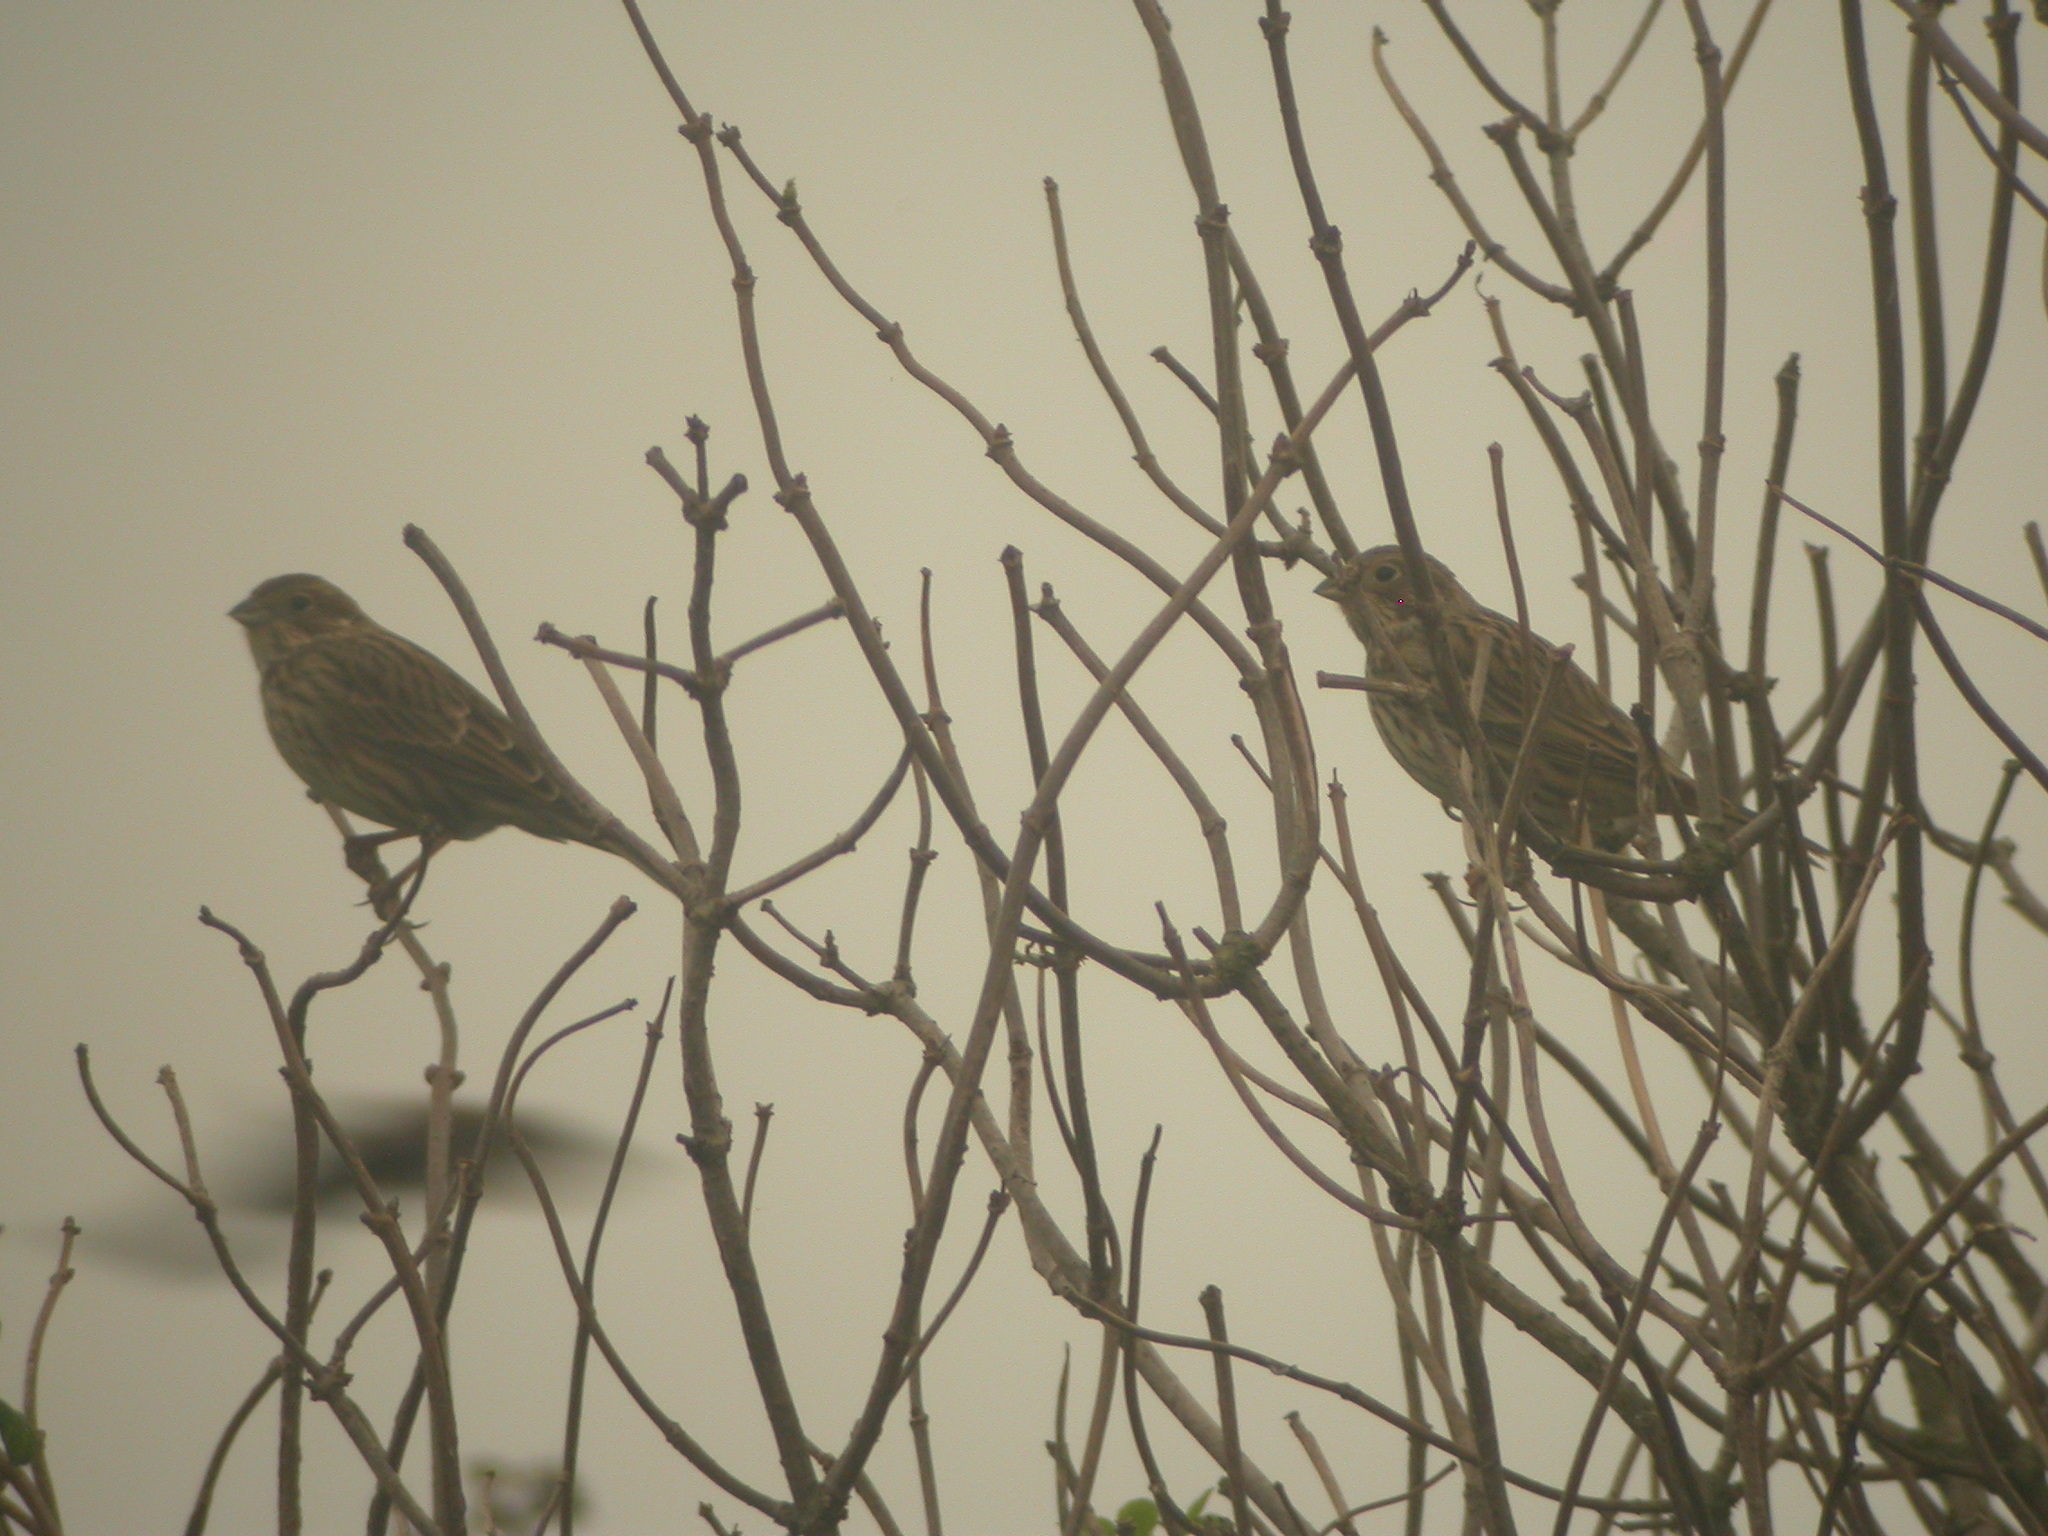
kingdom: Animalia
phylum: Chordata
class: Aves
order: Passeriformes
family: Emberizidae
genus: Emberiza
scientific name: Emberiza calandra
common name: Corn bunting
